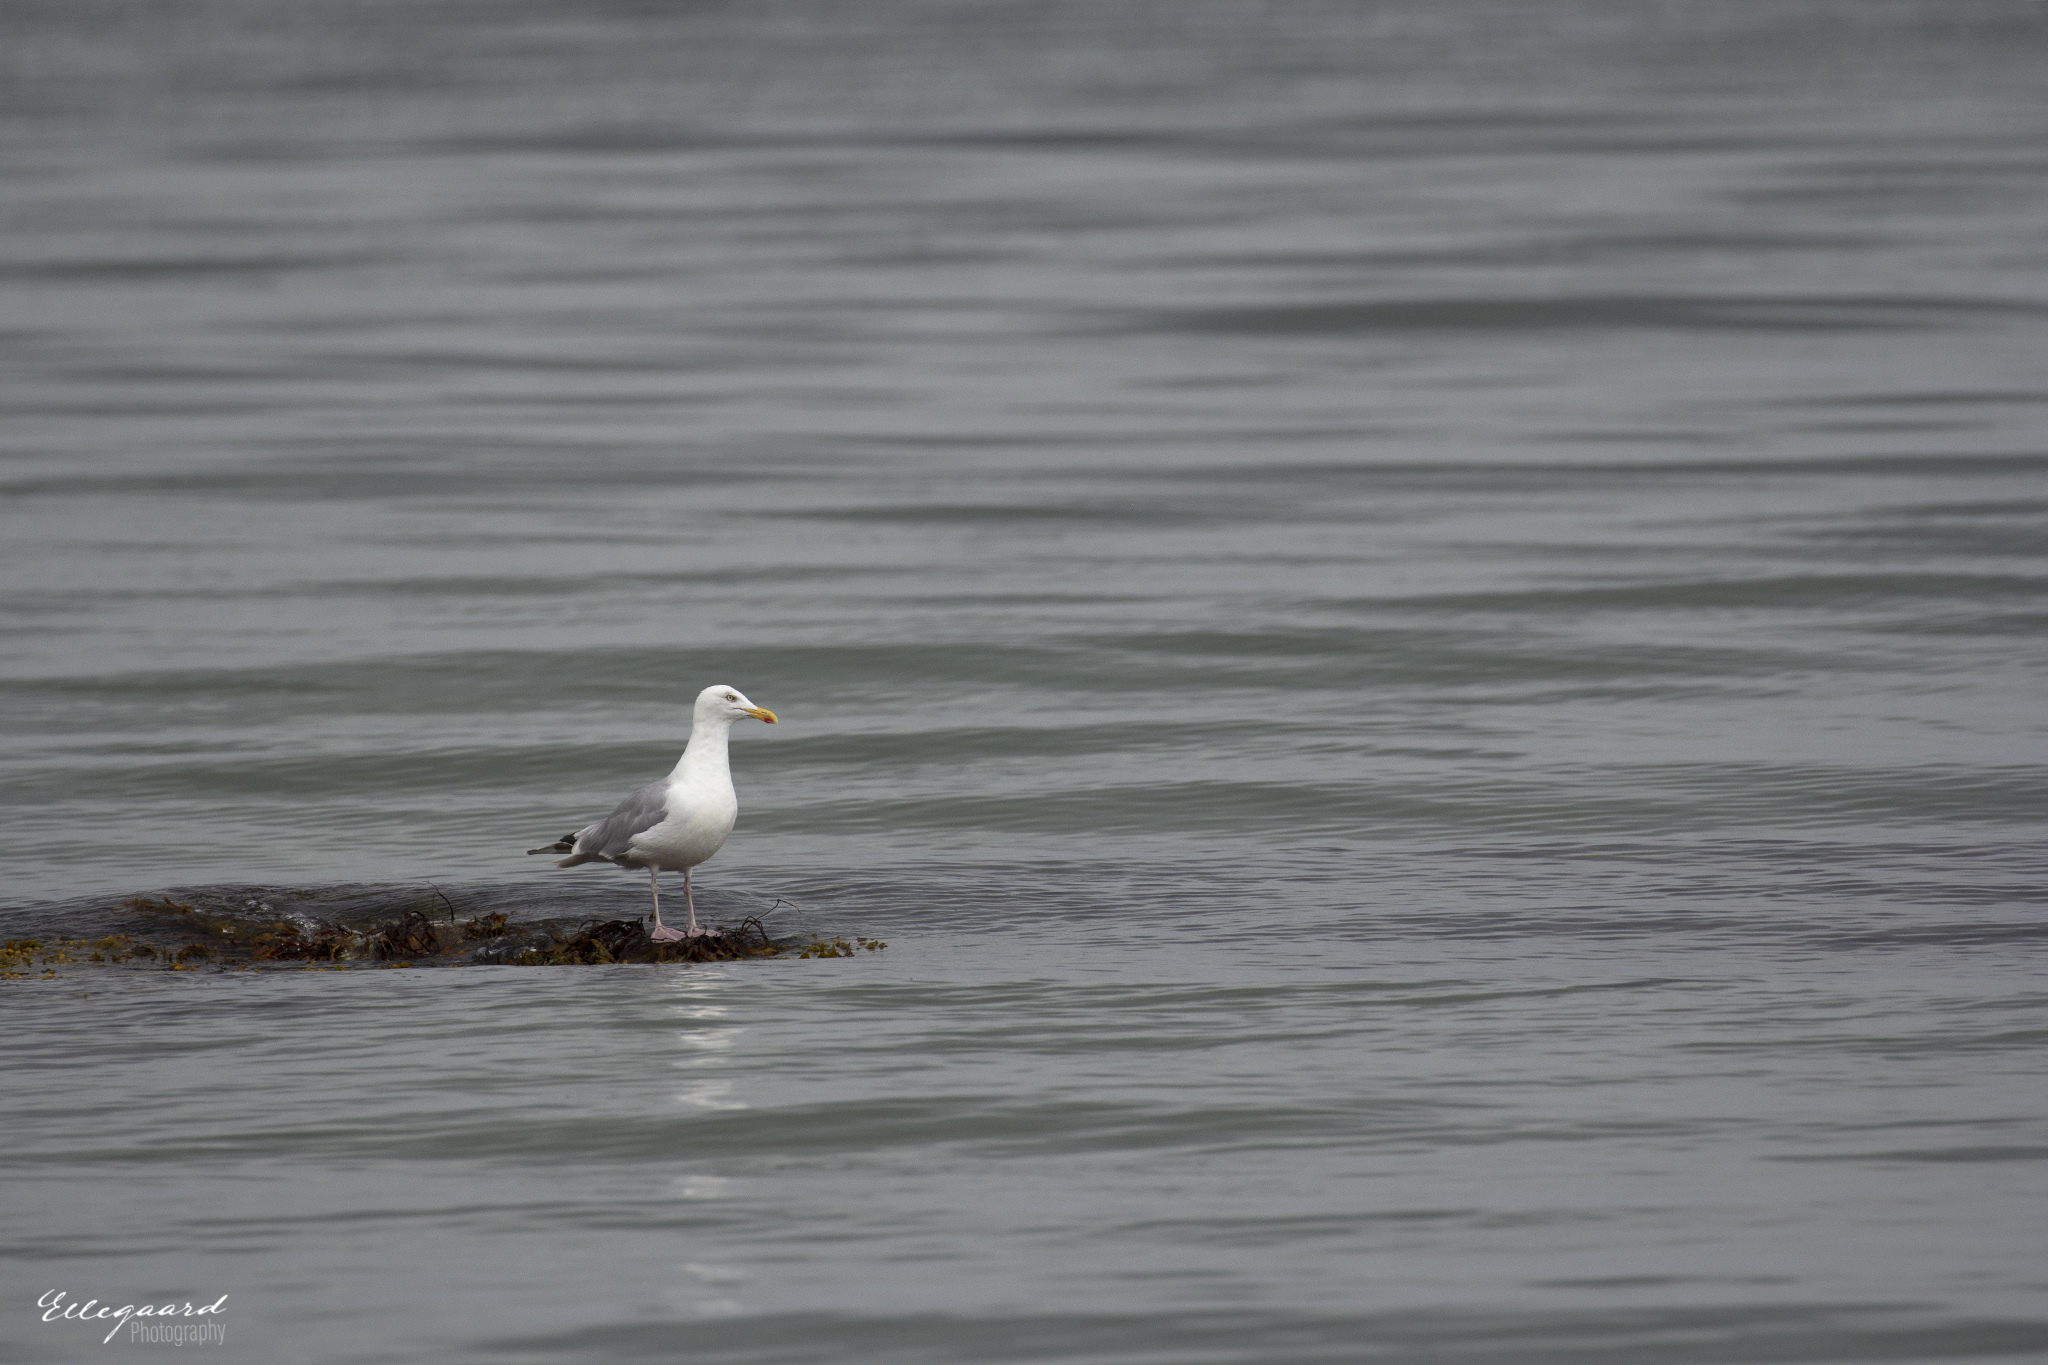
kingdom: Animalia
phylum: Chordata
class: Aves
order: Charadriiformes
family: Laridae
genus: Larus
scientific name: Larus argentatus
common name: Herring gull
